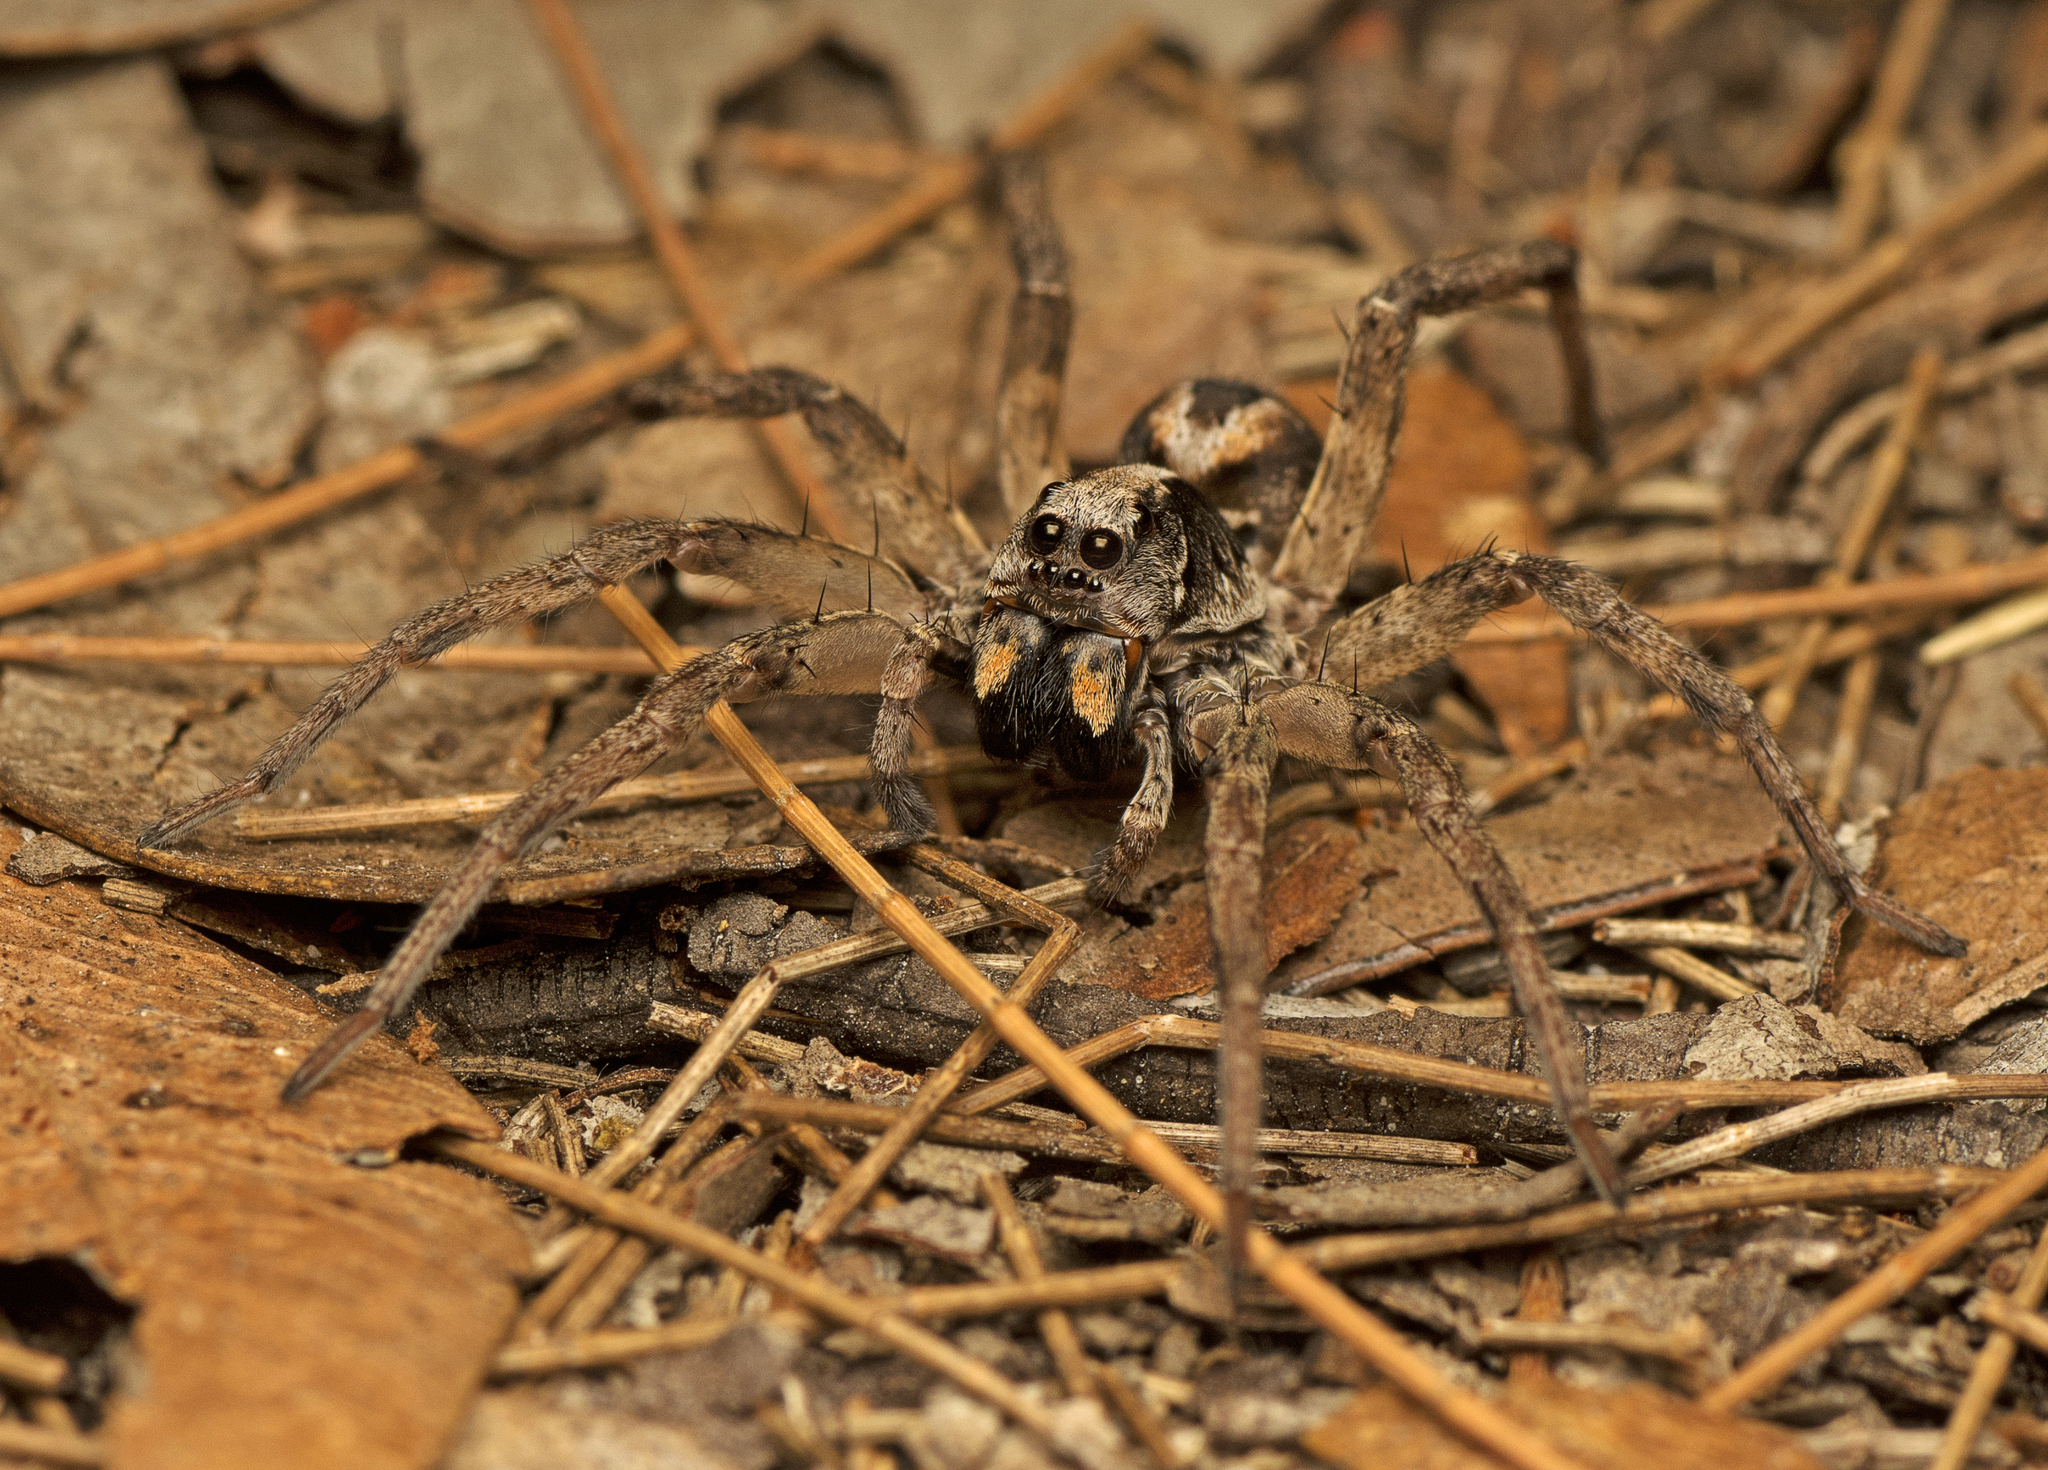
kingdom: Animalia
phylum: Arthropoda
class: Arachnida
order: Araneae
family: Lycosidae
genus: Venator
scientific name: Venator spenceri
